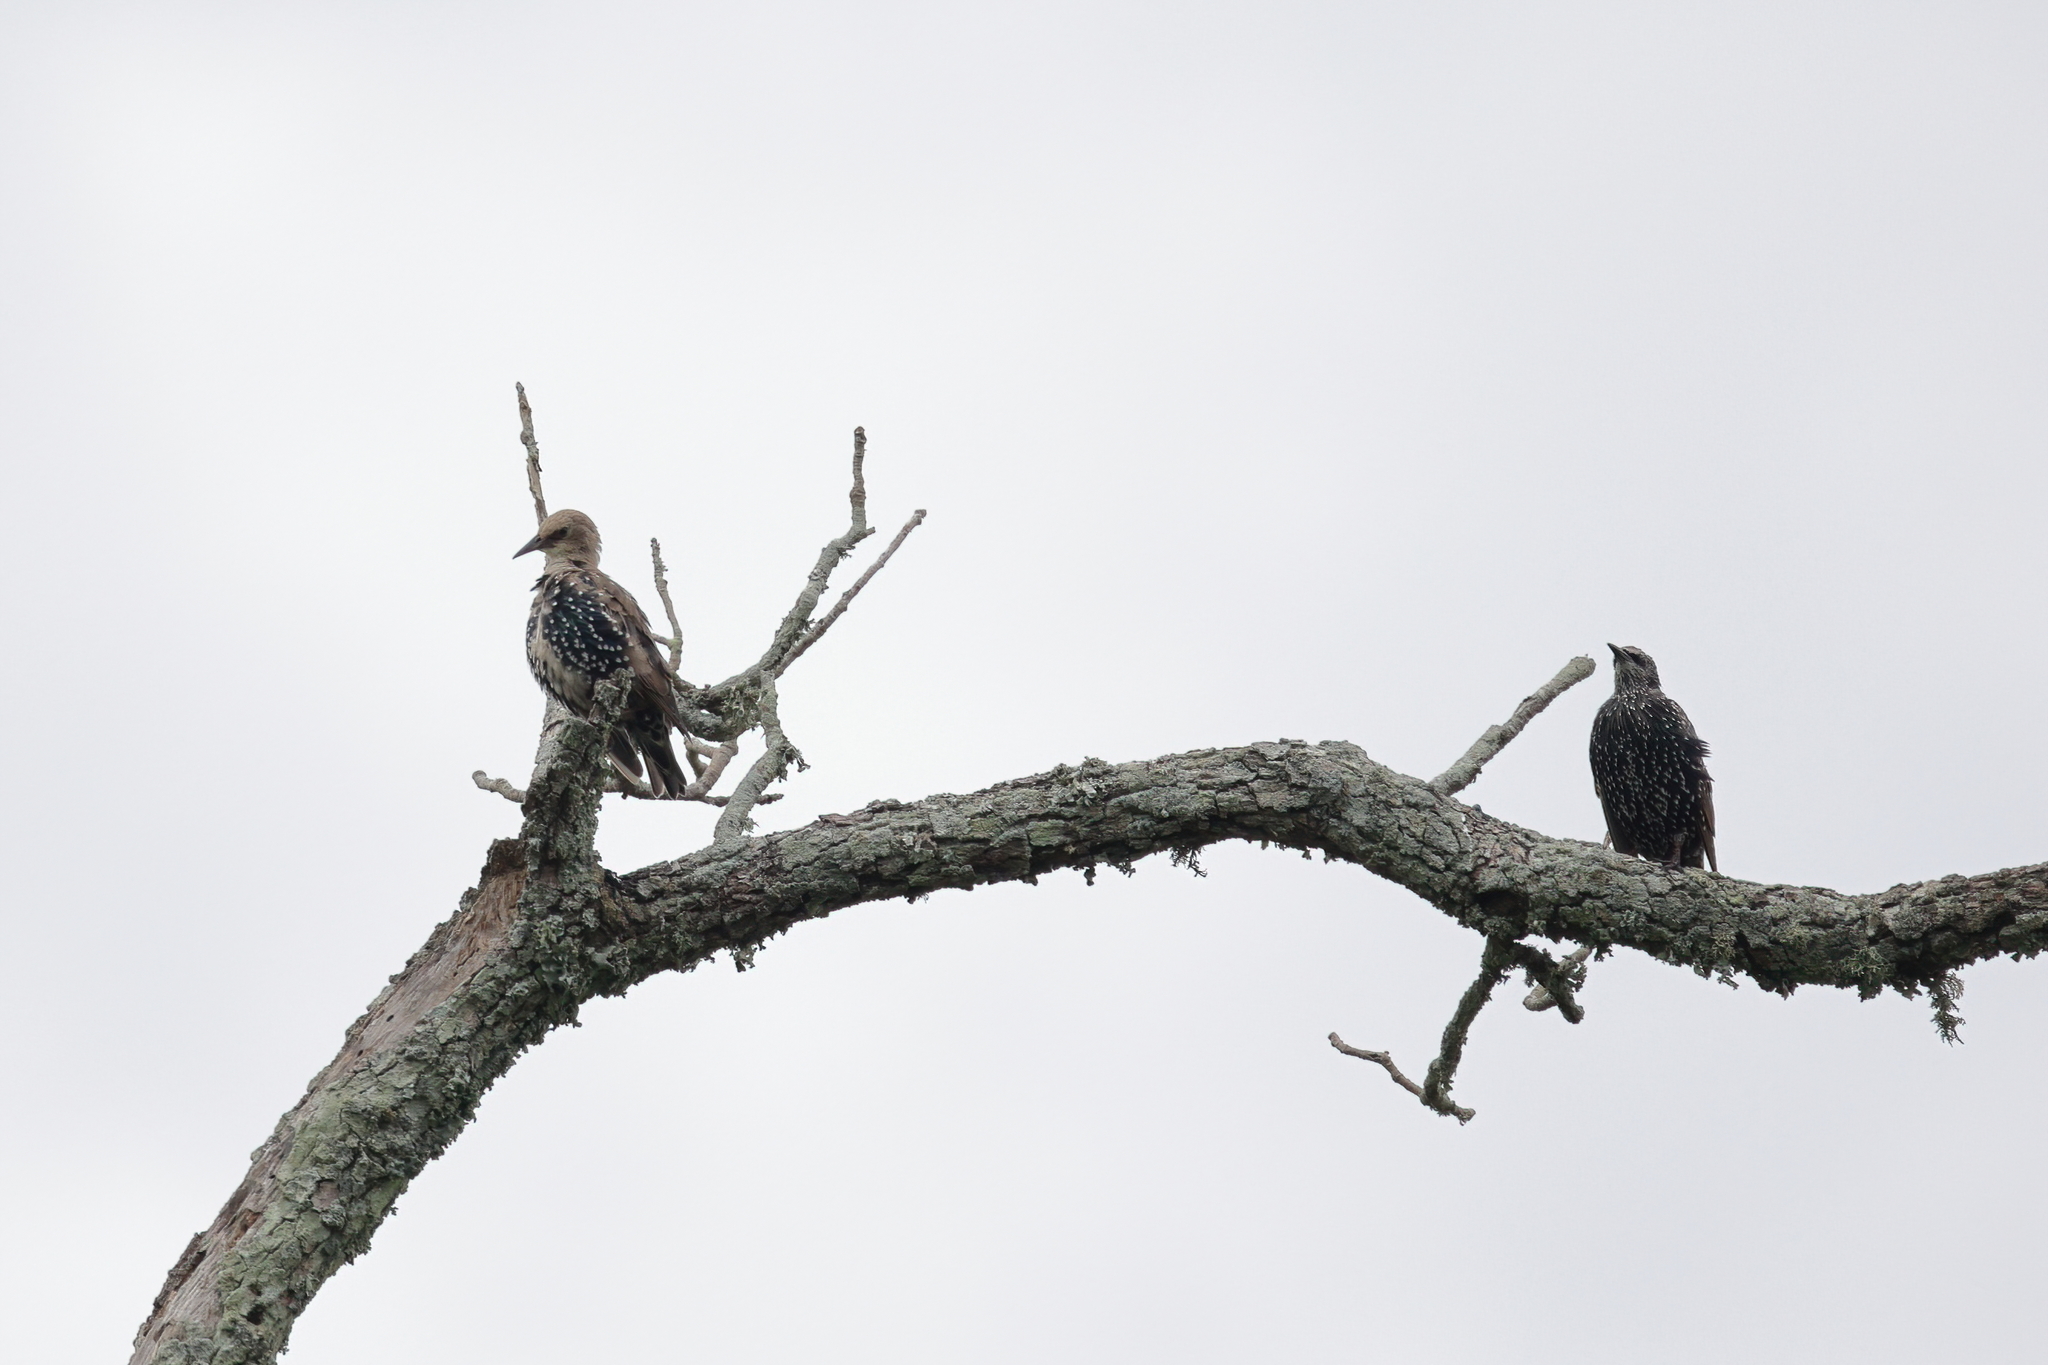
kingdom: Animalia
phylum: Chordata
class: Aves
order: Passeriformes
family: Sturnidae
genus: Sturnus
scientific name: Sturnus vulgaris
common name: Common starling
